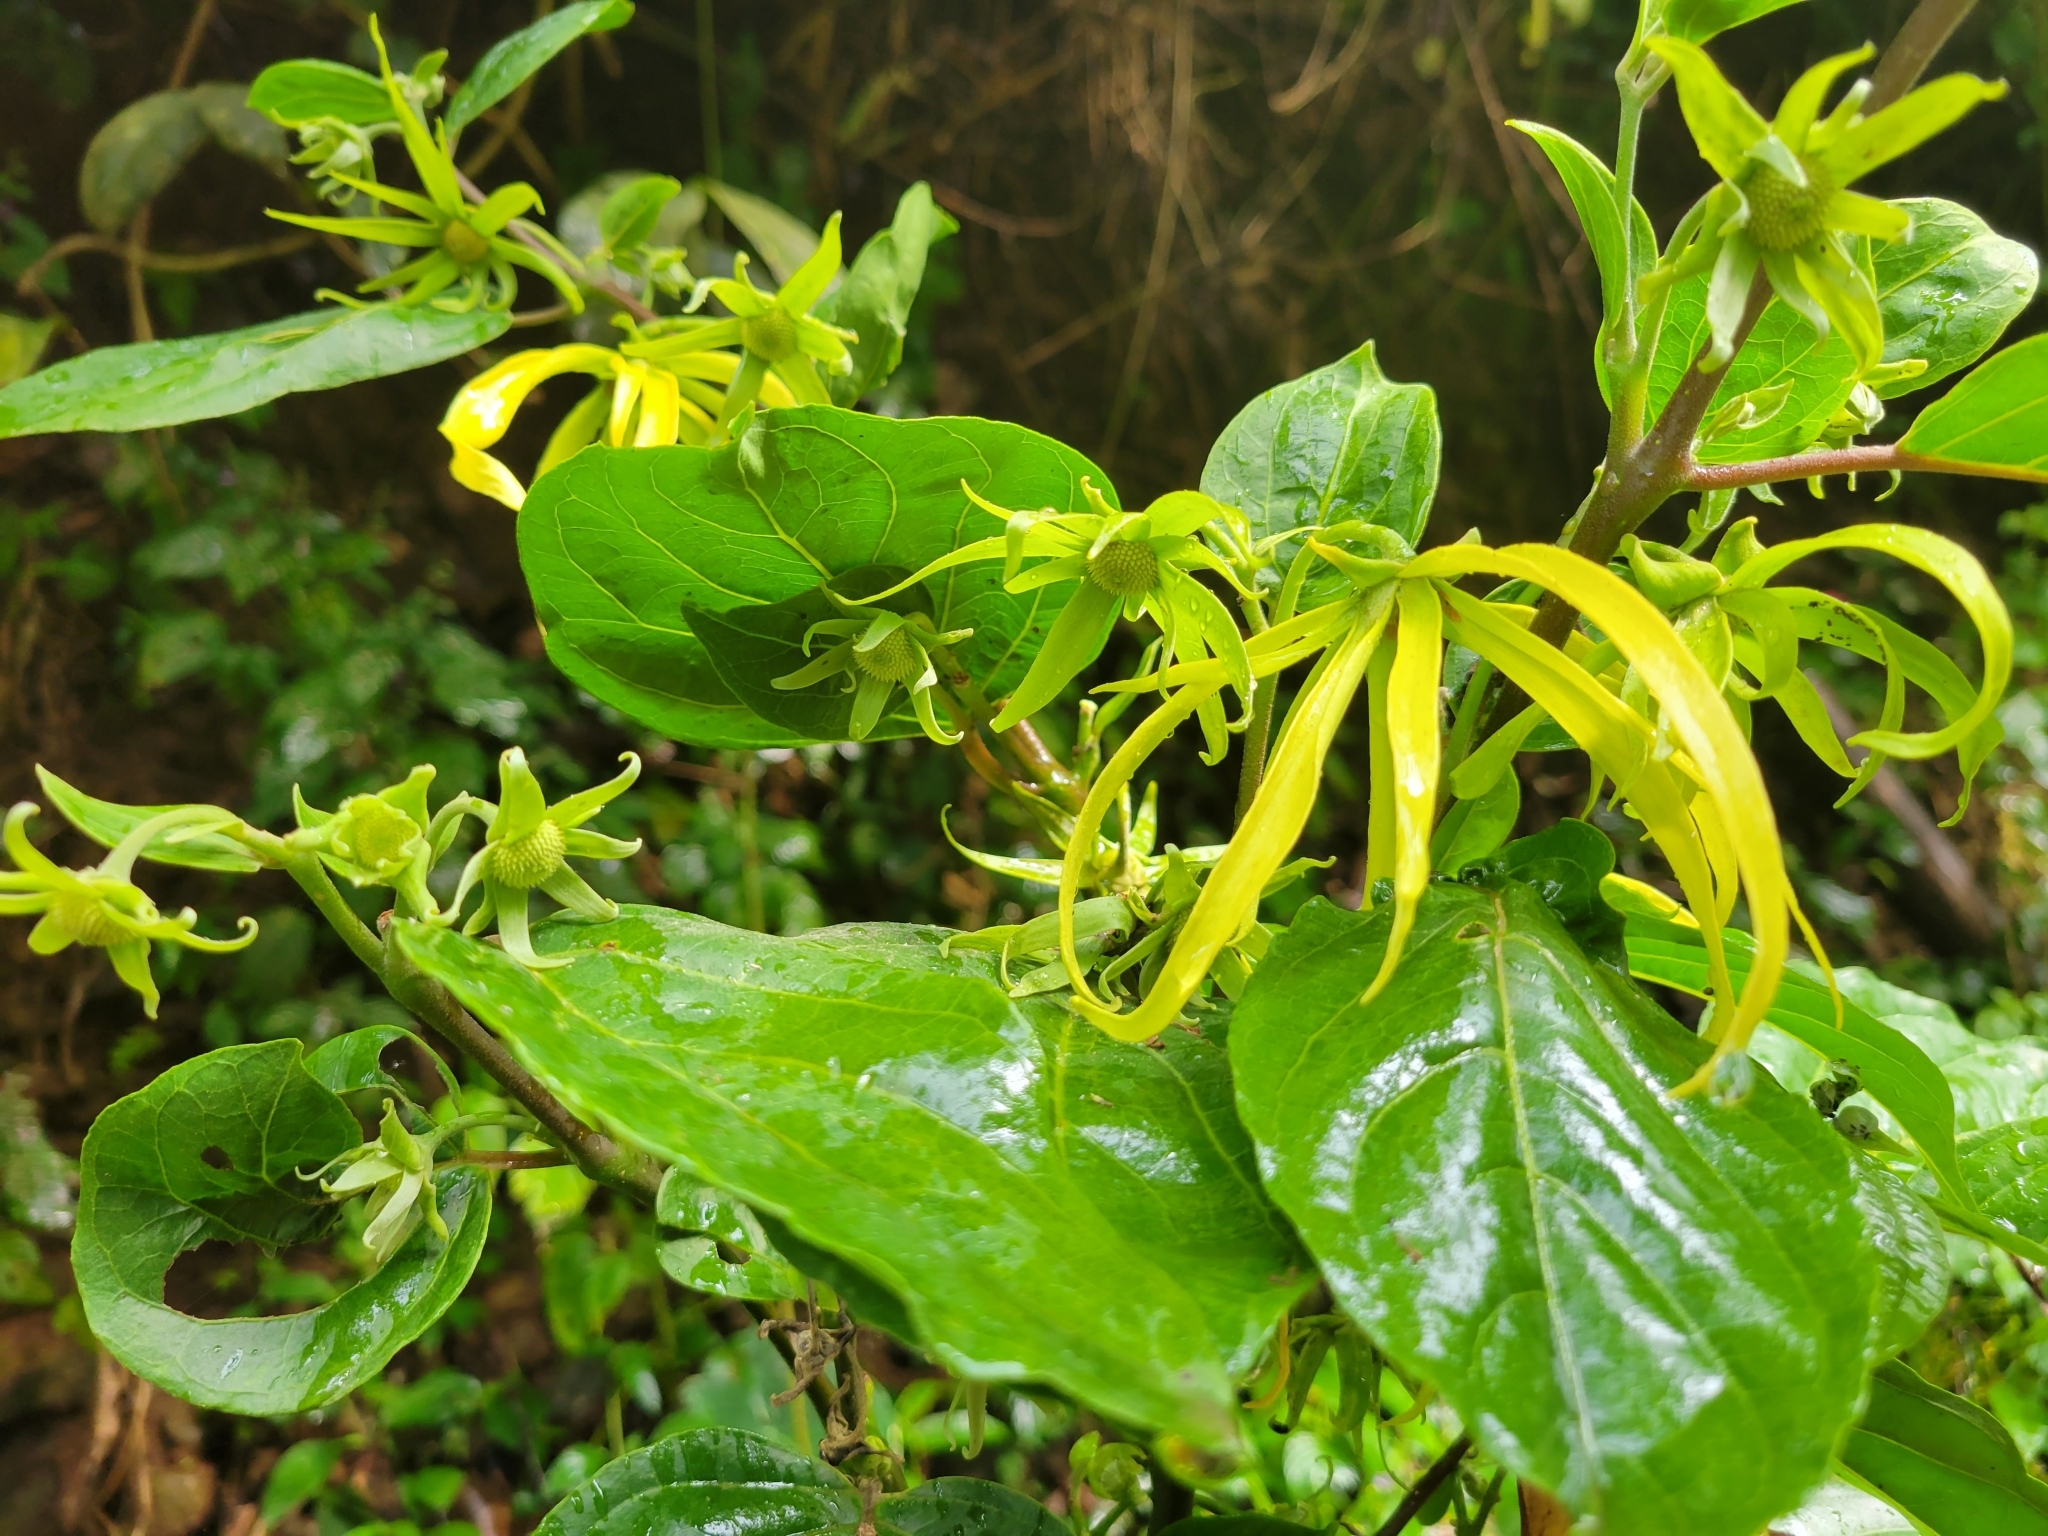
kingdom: Plantae
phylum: Tracheophyta
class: Magnoliopsida
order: Magnoliales
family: Annonaceae
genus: Cananga
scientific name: Cananga odorata
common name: Cananga tree
